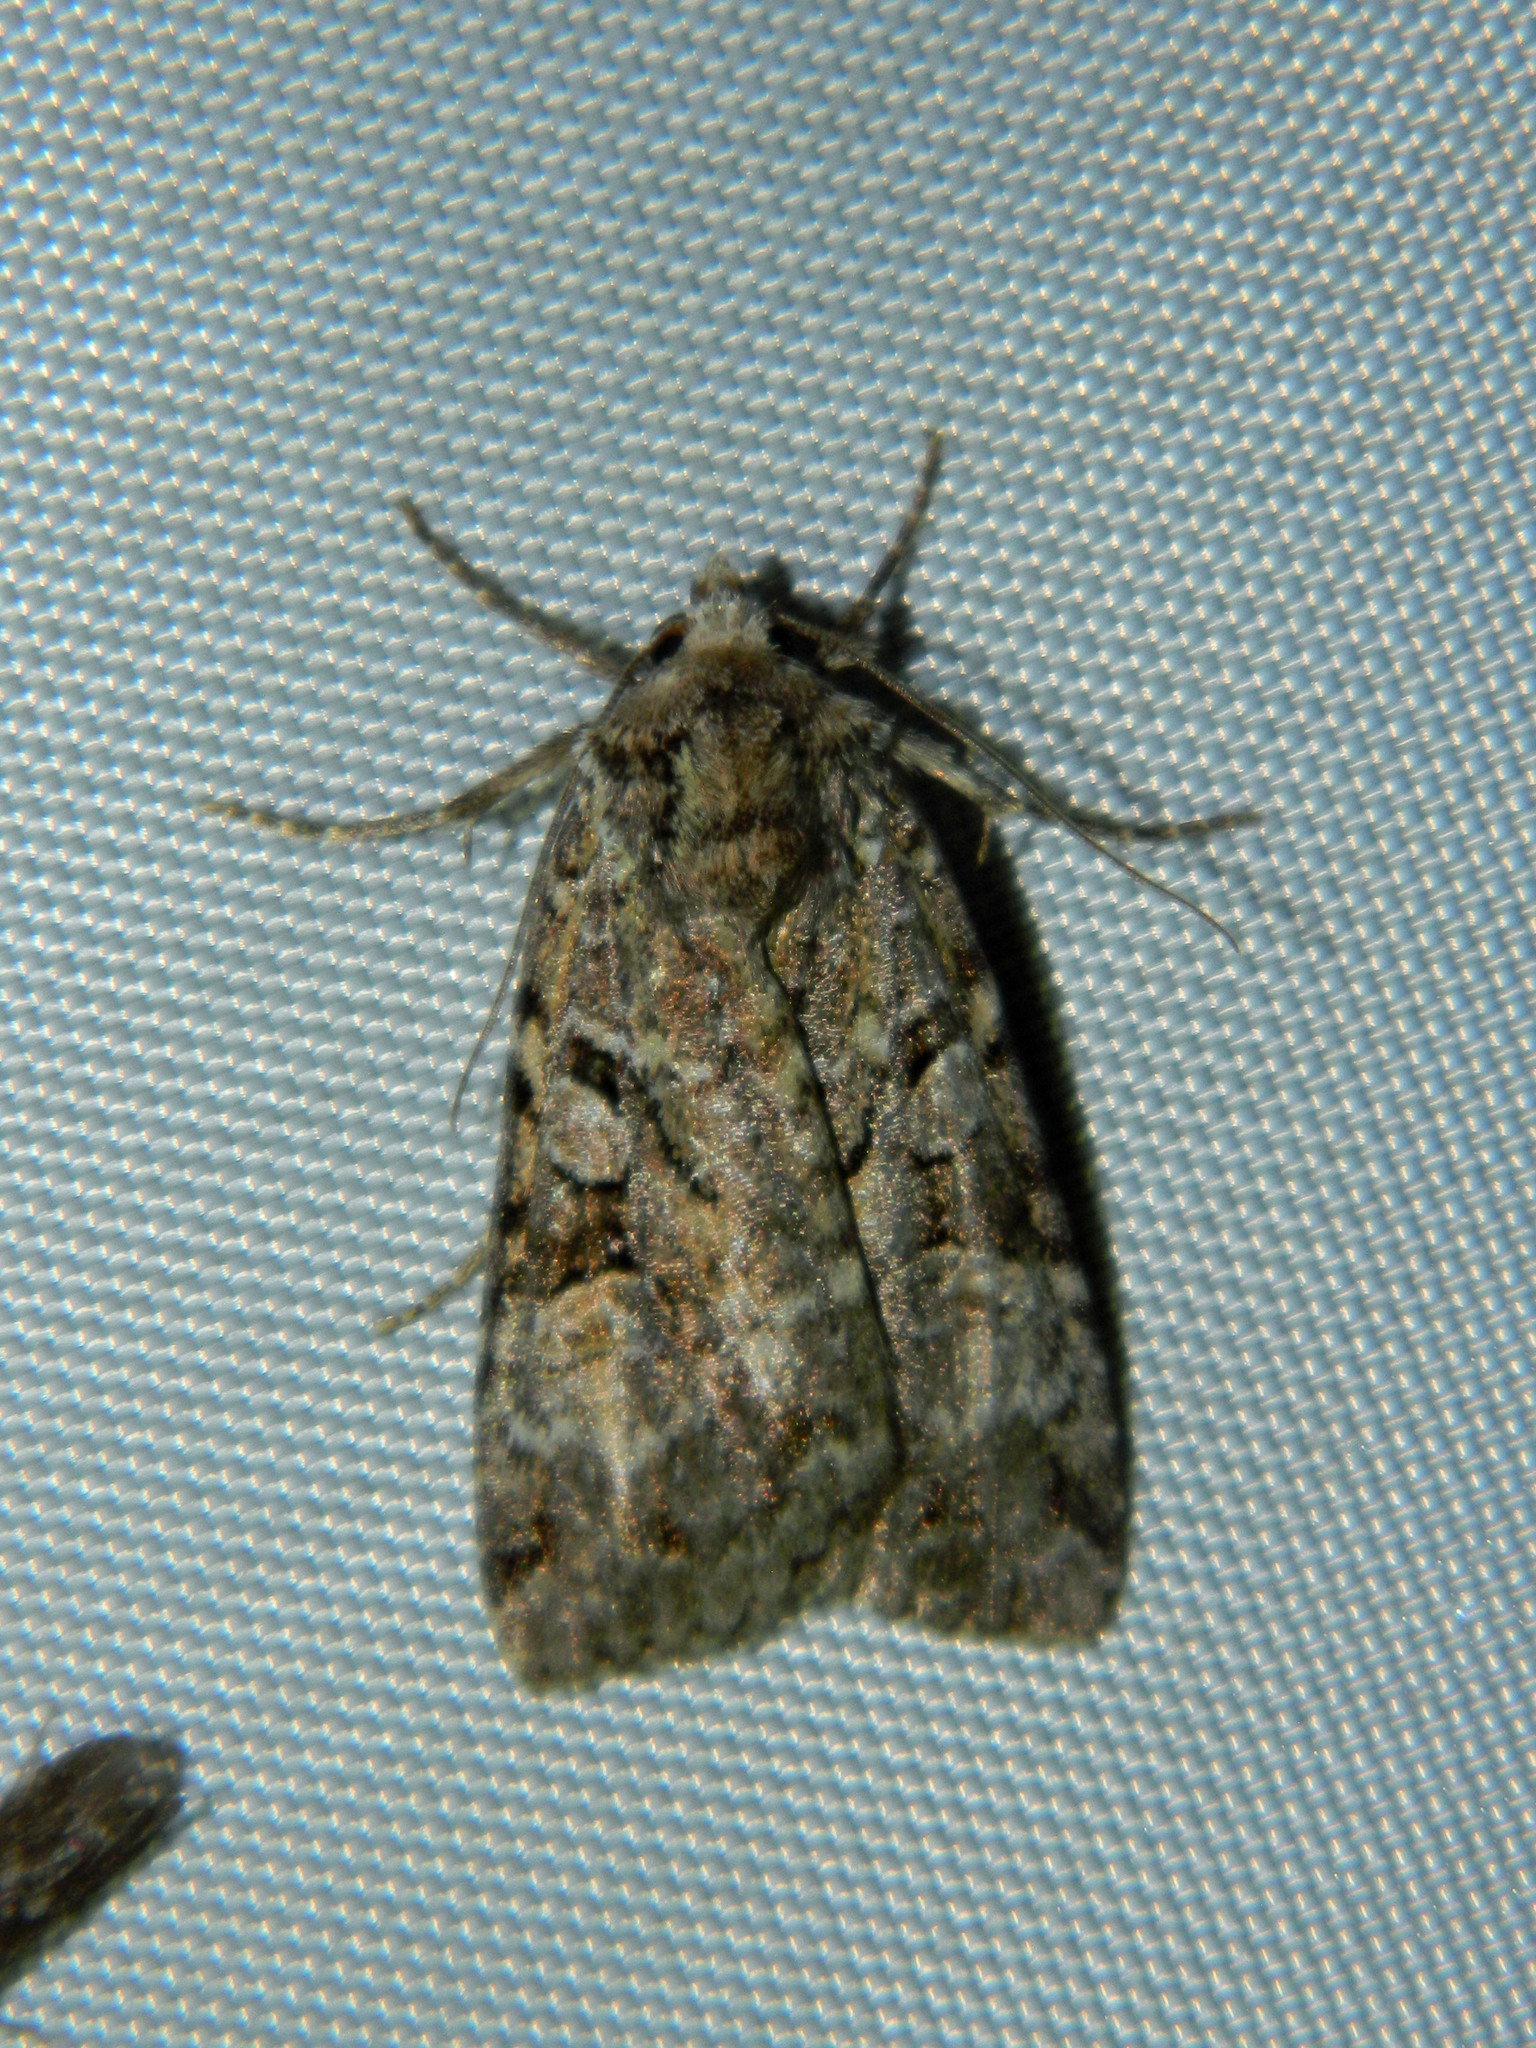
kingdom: Animalia
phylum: Arthropoda
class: Insecta
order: Lepidoptera
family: Noctuidae
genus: Anaplectoides
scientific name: Anaplectoides pressus
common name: Dappled dart
